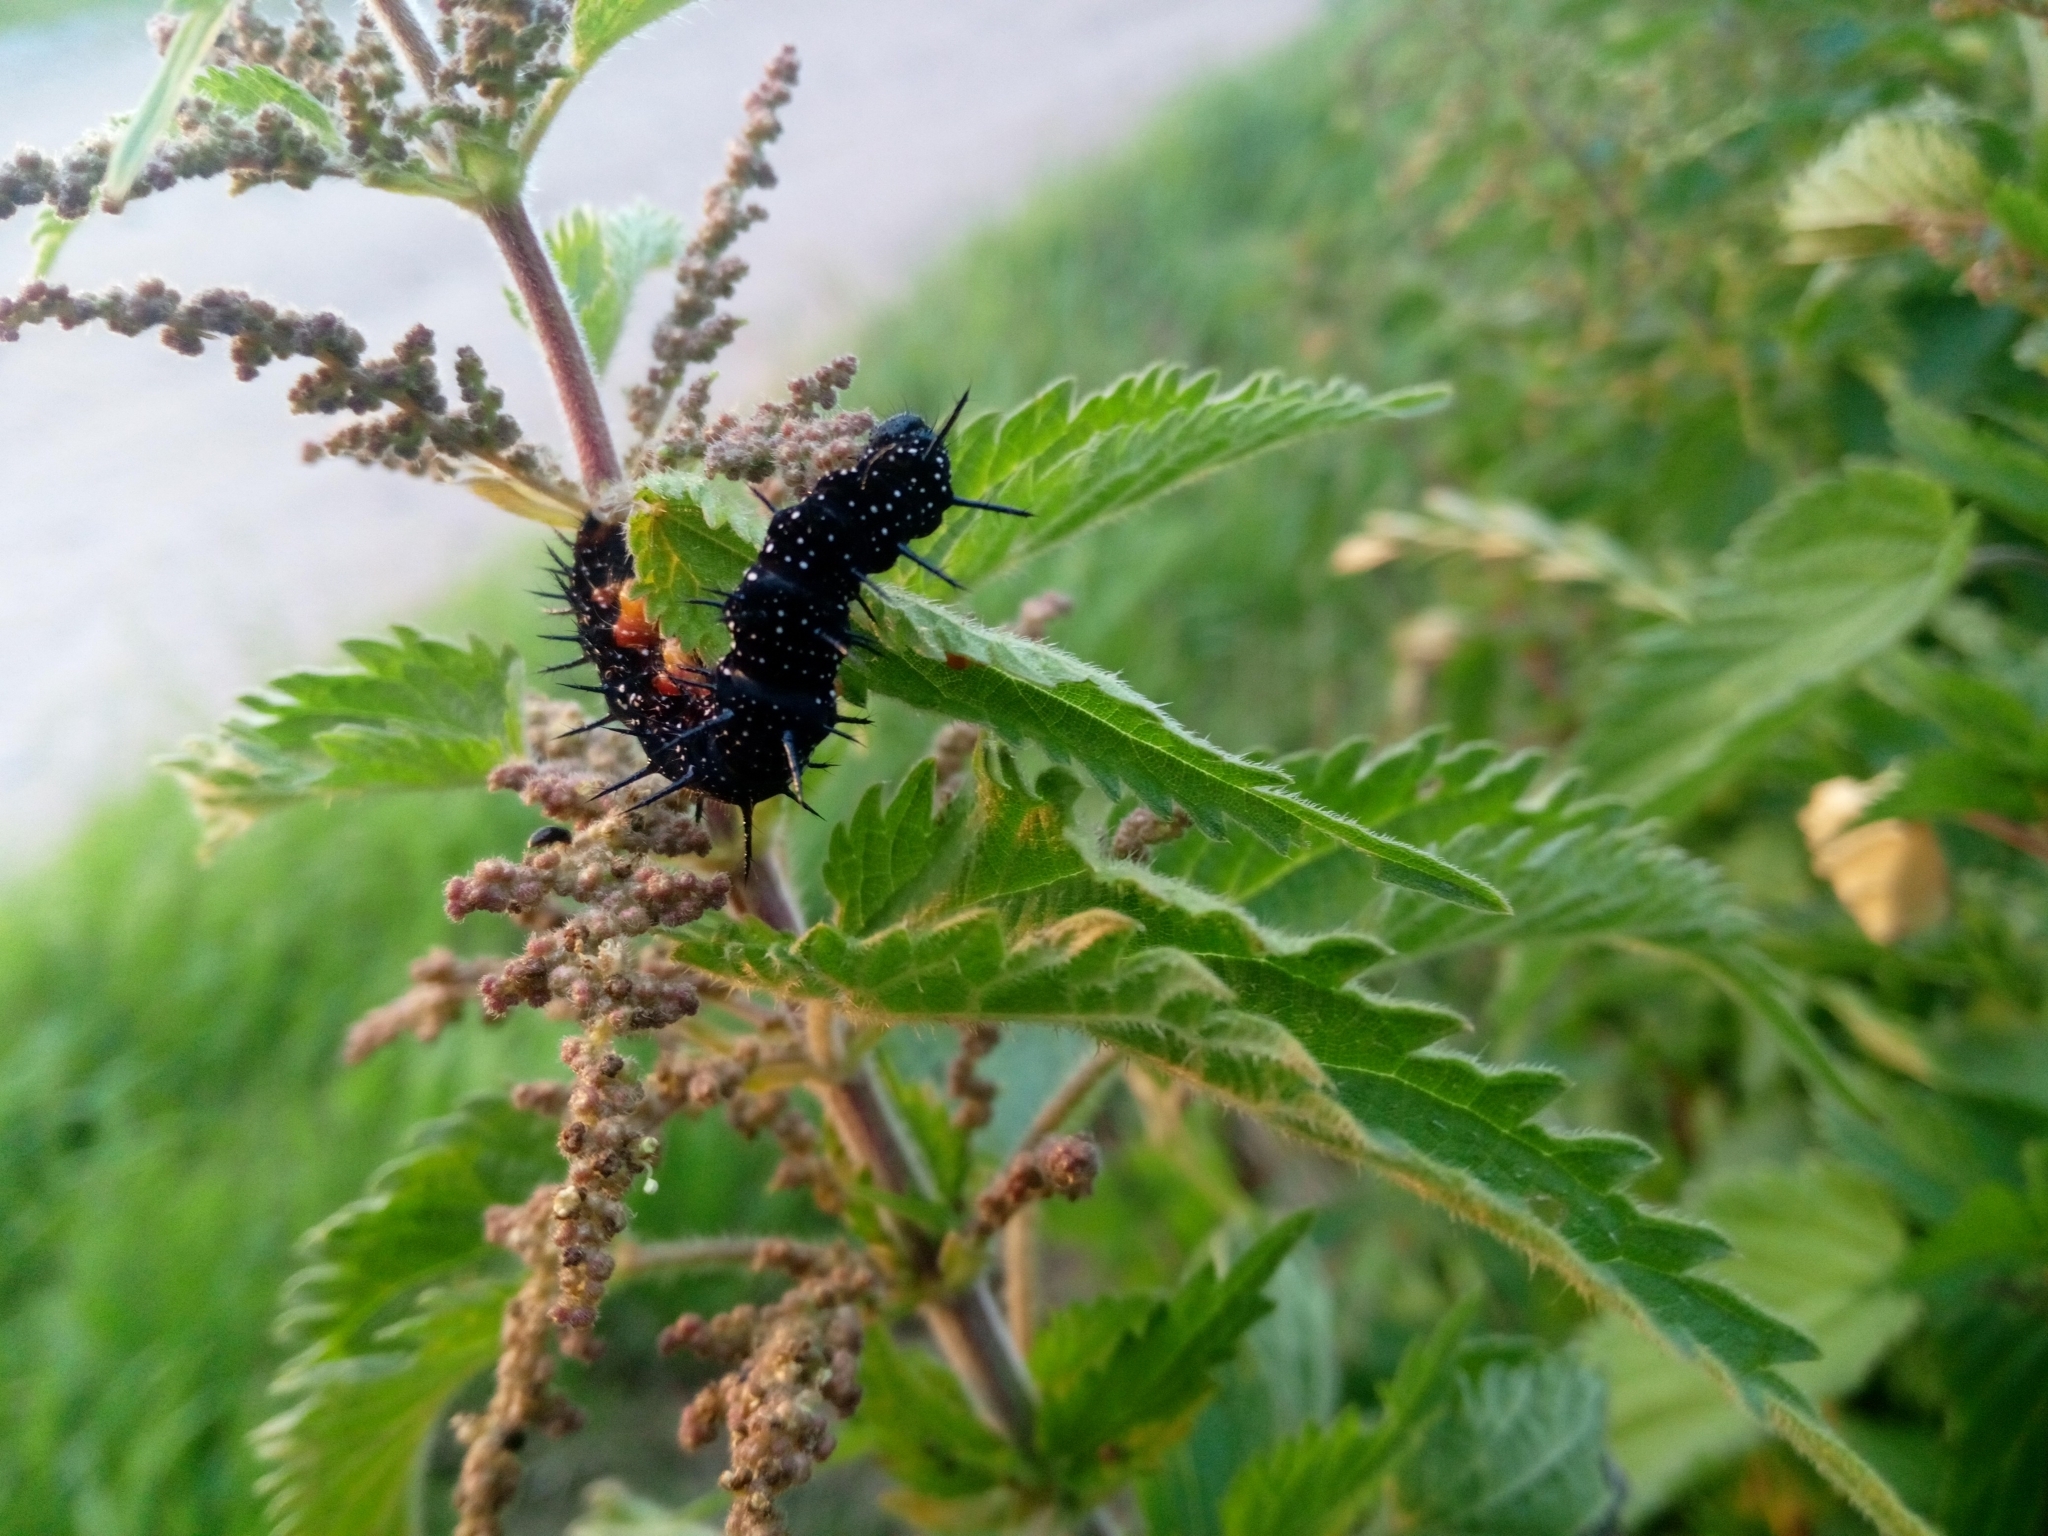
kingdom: Animalia
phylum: Arthropoda
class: Insecta
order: Lepidoptera
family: Nymphalidae
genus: Aglais
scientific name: Aglais io
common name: Peacock
